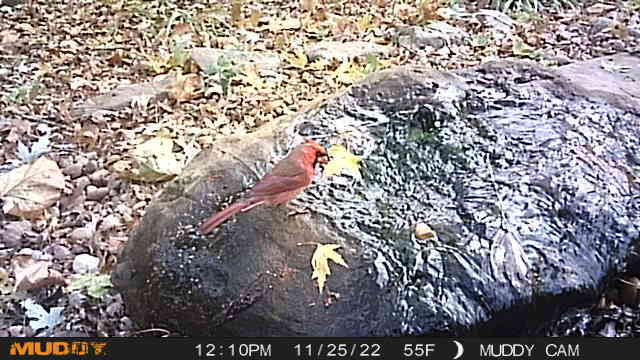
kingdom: Animalia
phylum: Chordata
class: Aves
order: Passeriformes
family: Cardinalidae
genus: Cardinalis
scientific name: Cardinalis cardinalis
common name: Northern cardinal
